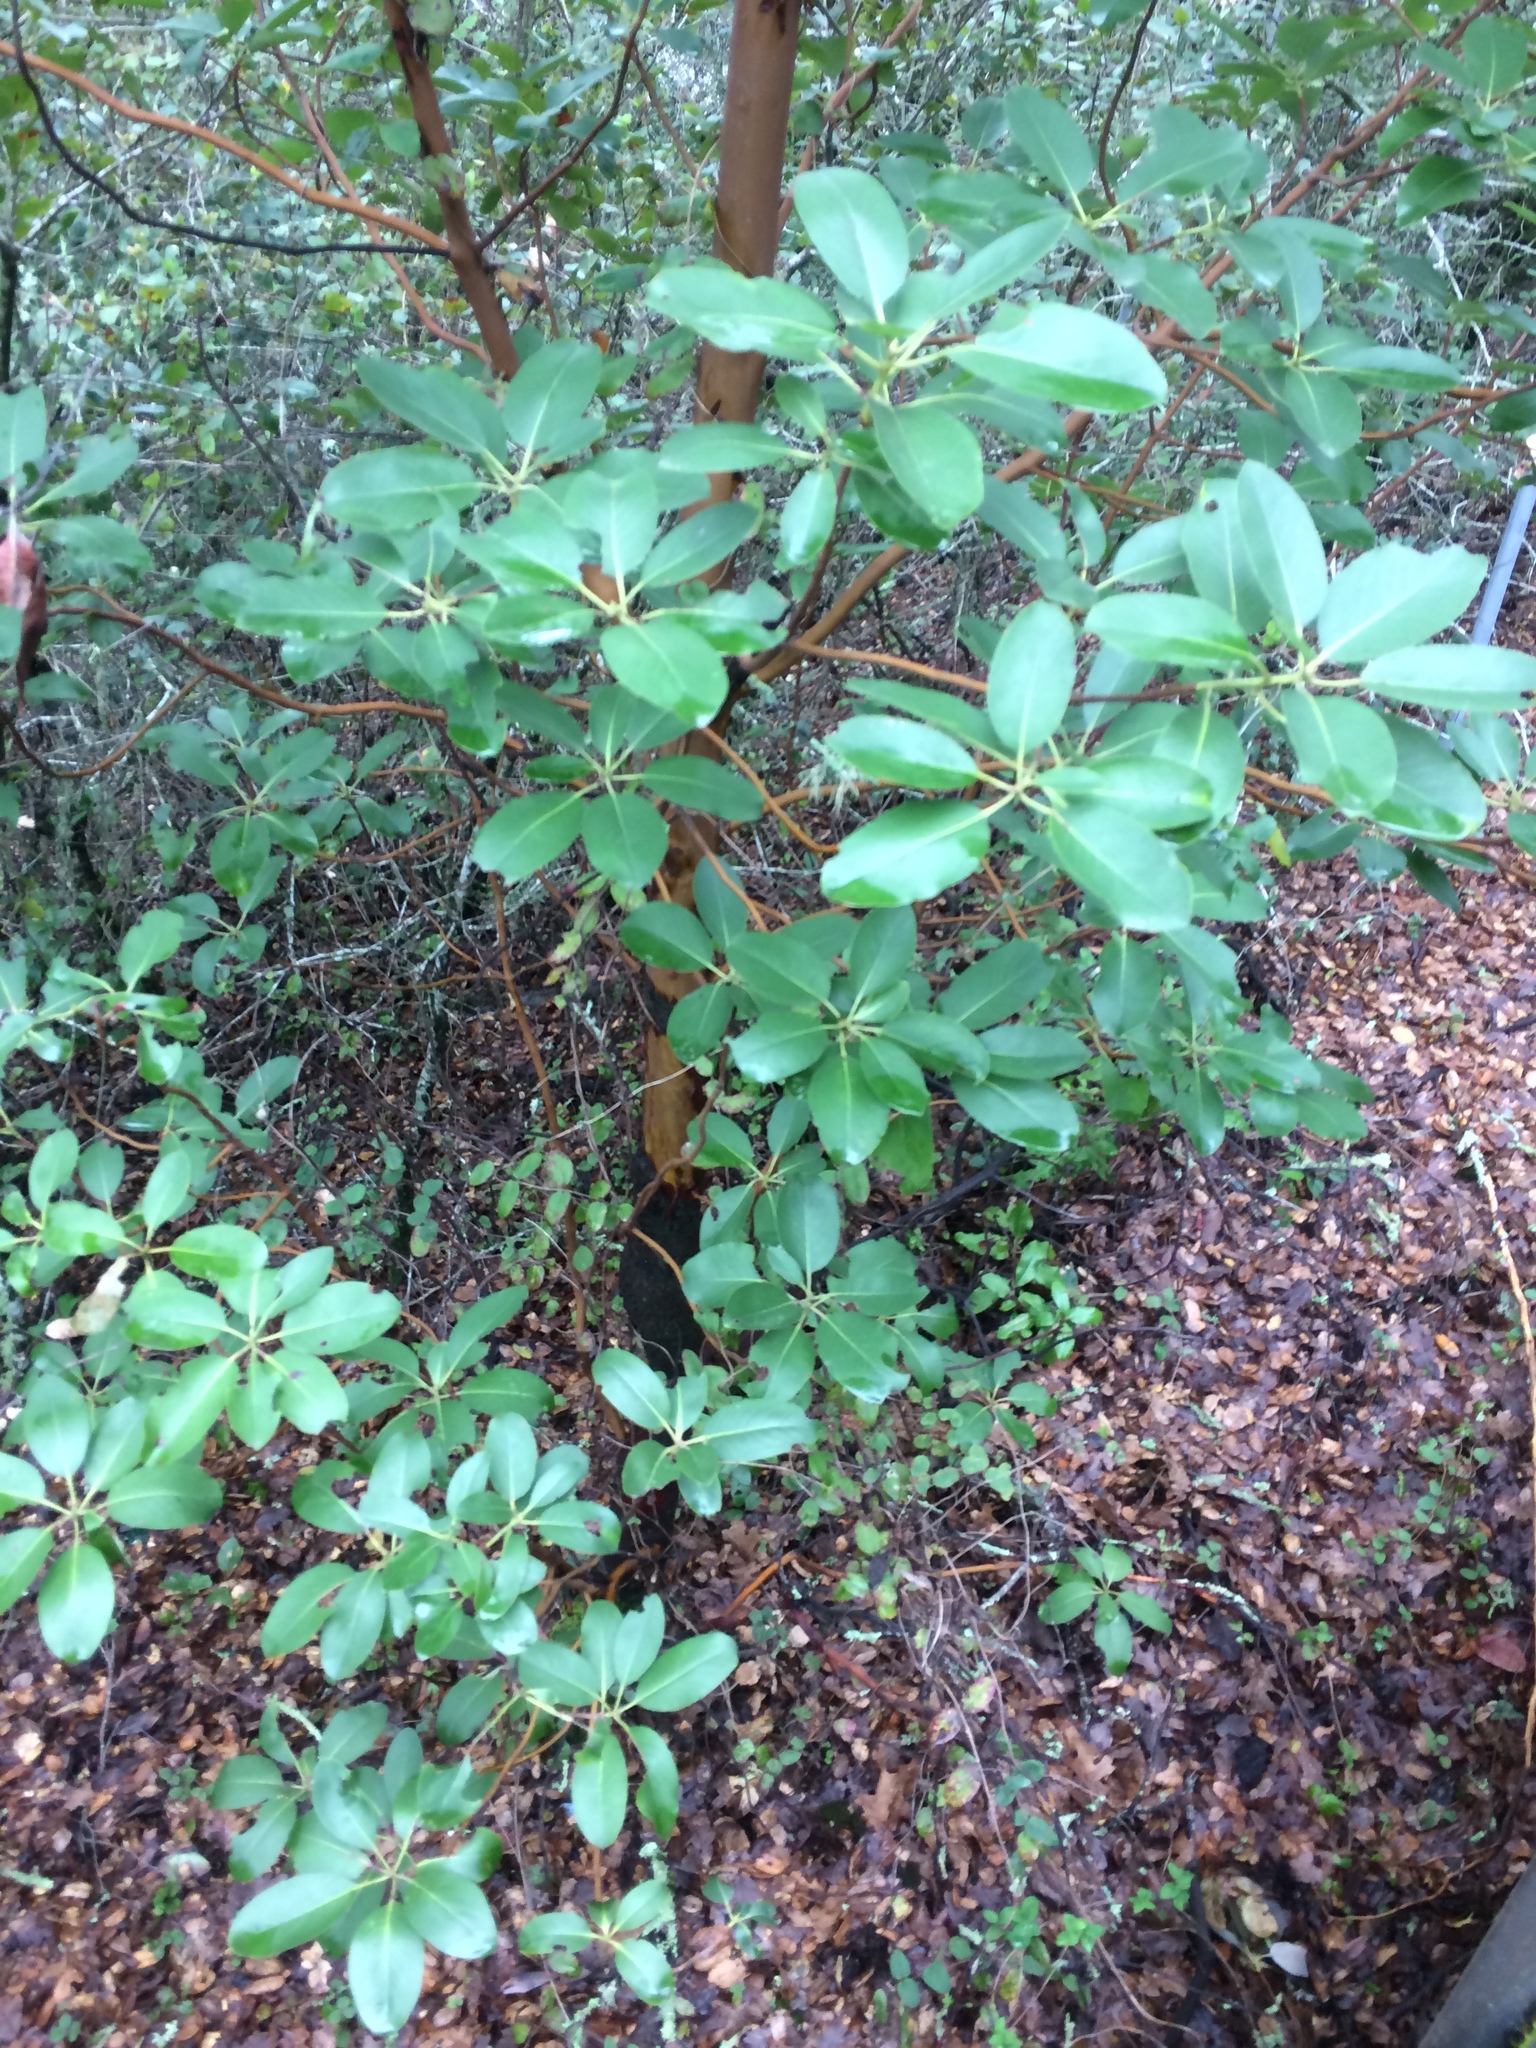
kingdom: Plantae
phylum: Tracheophyta
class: Magnoliopsida
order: Ericales
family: Ericaceae
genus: Arbutus
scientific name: Arbutus menziesii
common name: Pacific madrone
